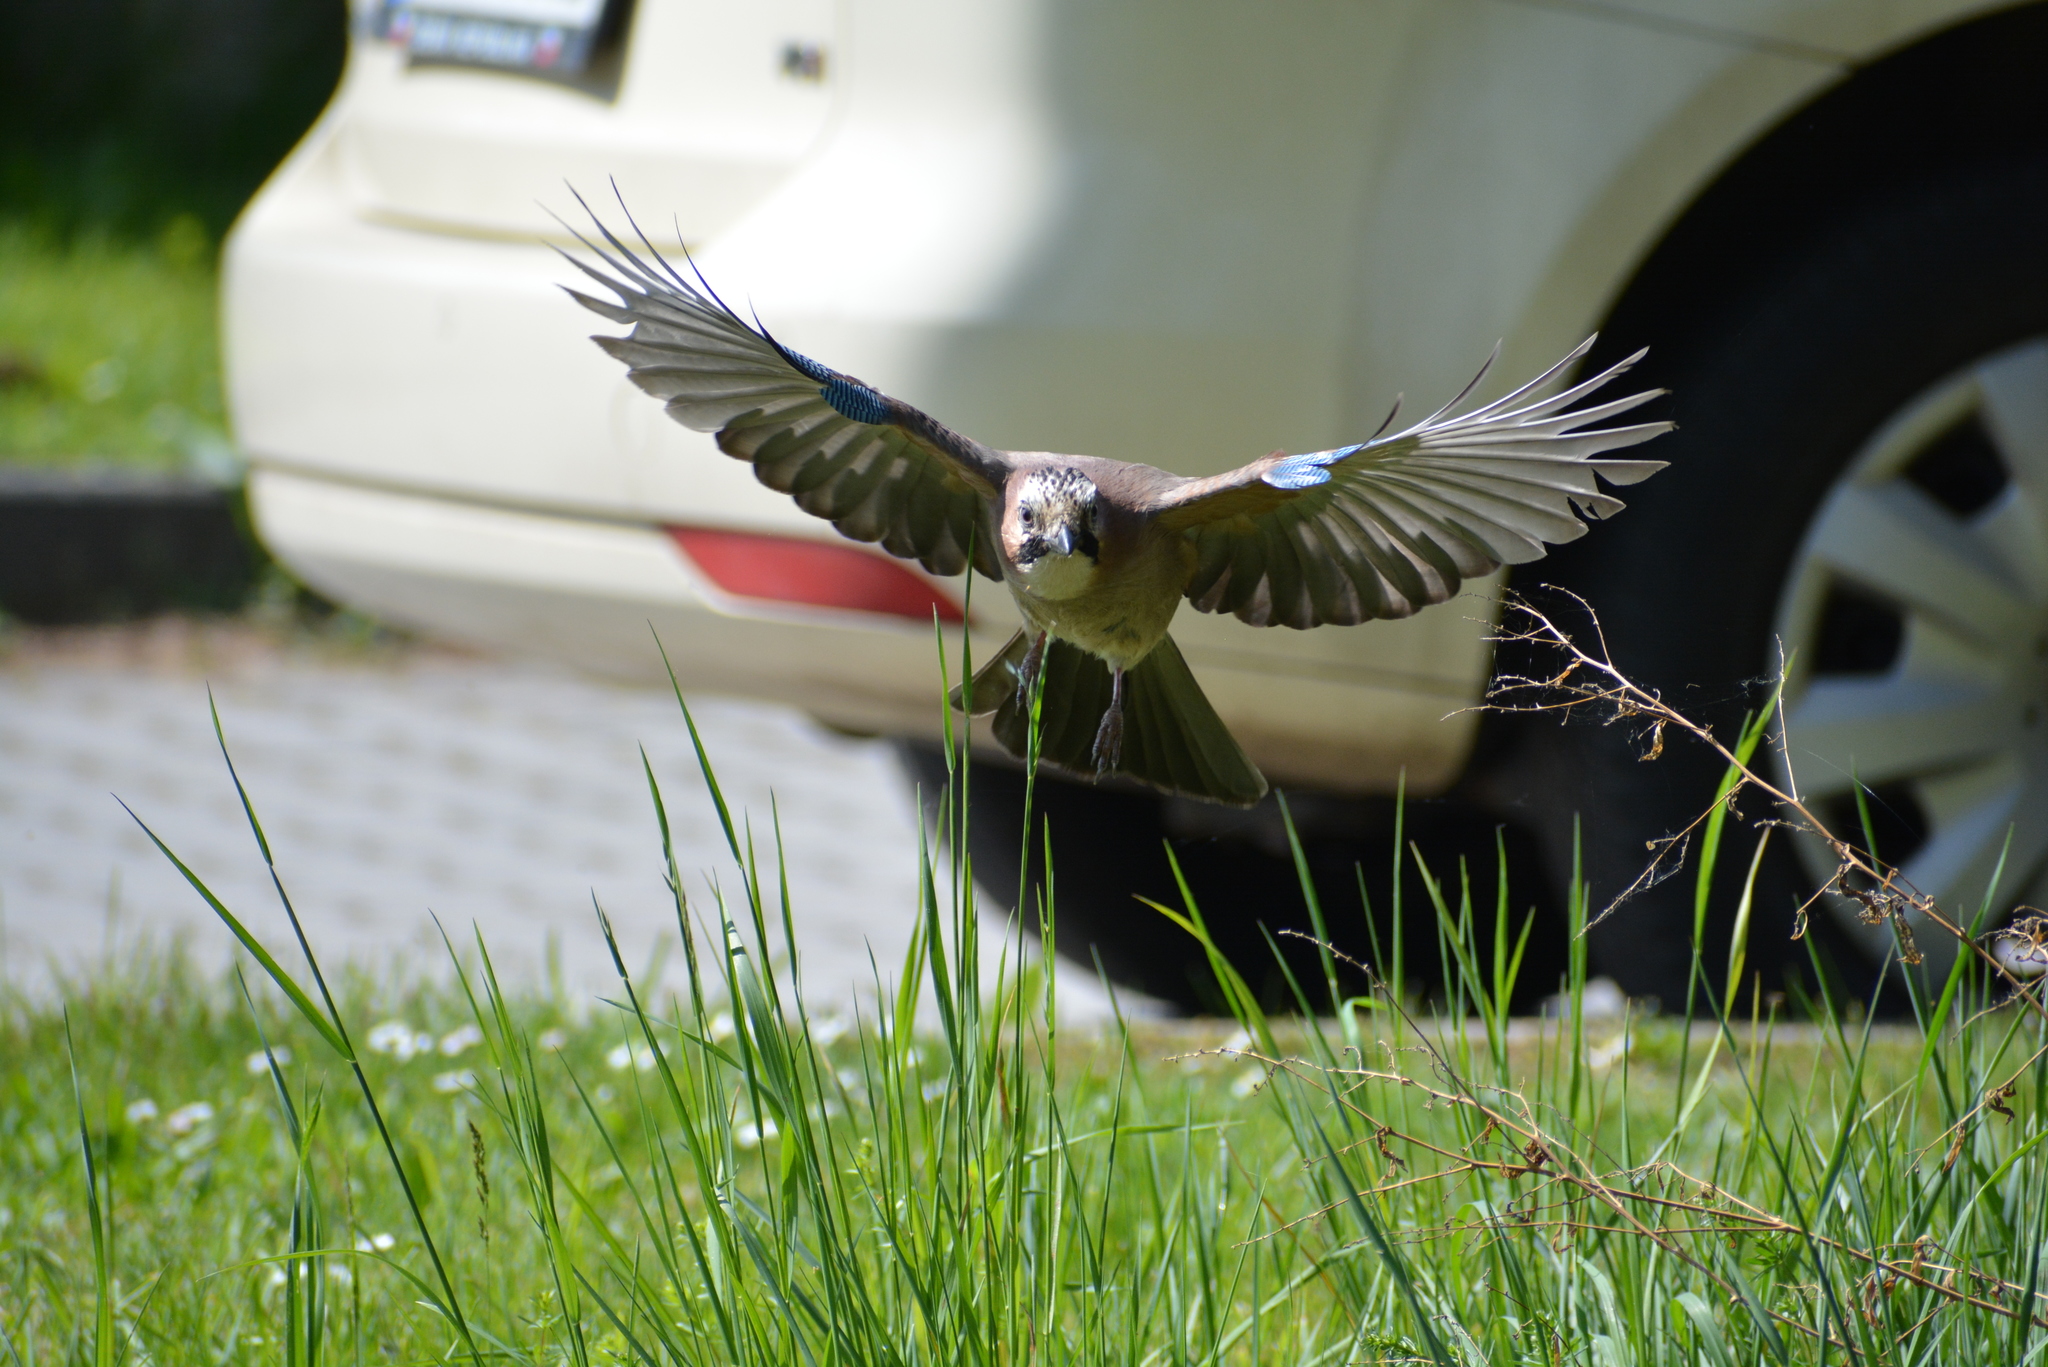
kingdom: Animalia
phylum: Chordata
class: Aves
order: Passeriformes
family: Corvidae
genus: Garrulus
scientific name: Garrulus glandarius
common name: Eurasian jay
